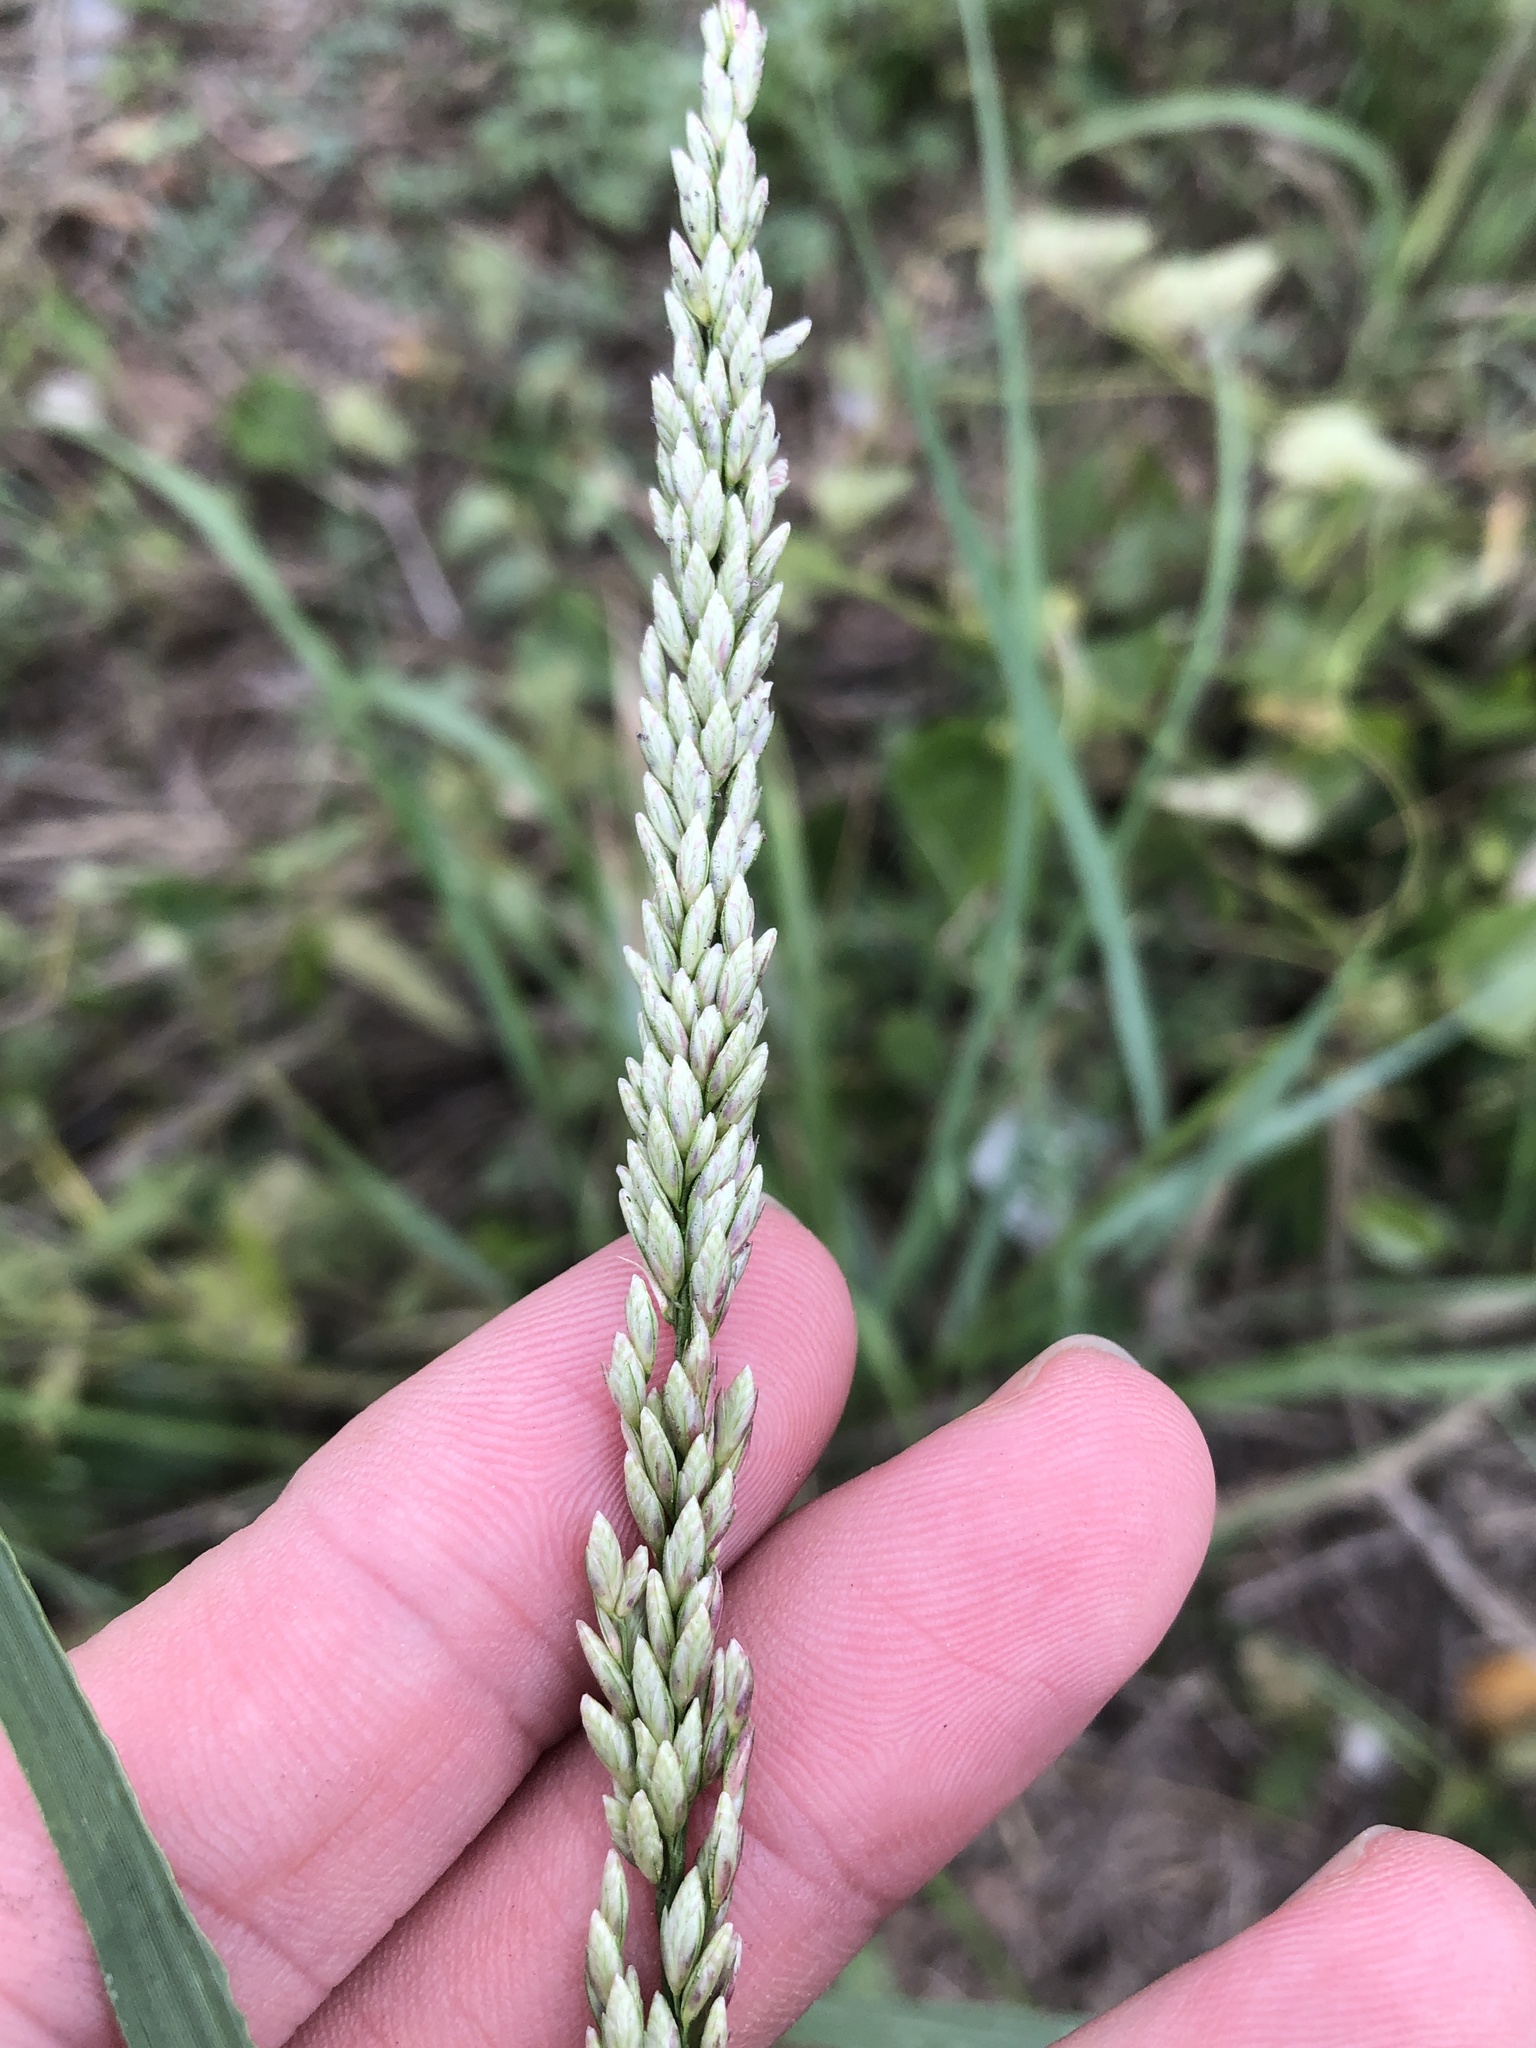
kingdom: Plantae
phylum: Tracheophyta
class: Liliopsida
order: Poales
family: Poaceae
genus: Tridens
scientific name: Tridens albescens
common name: White tridens
